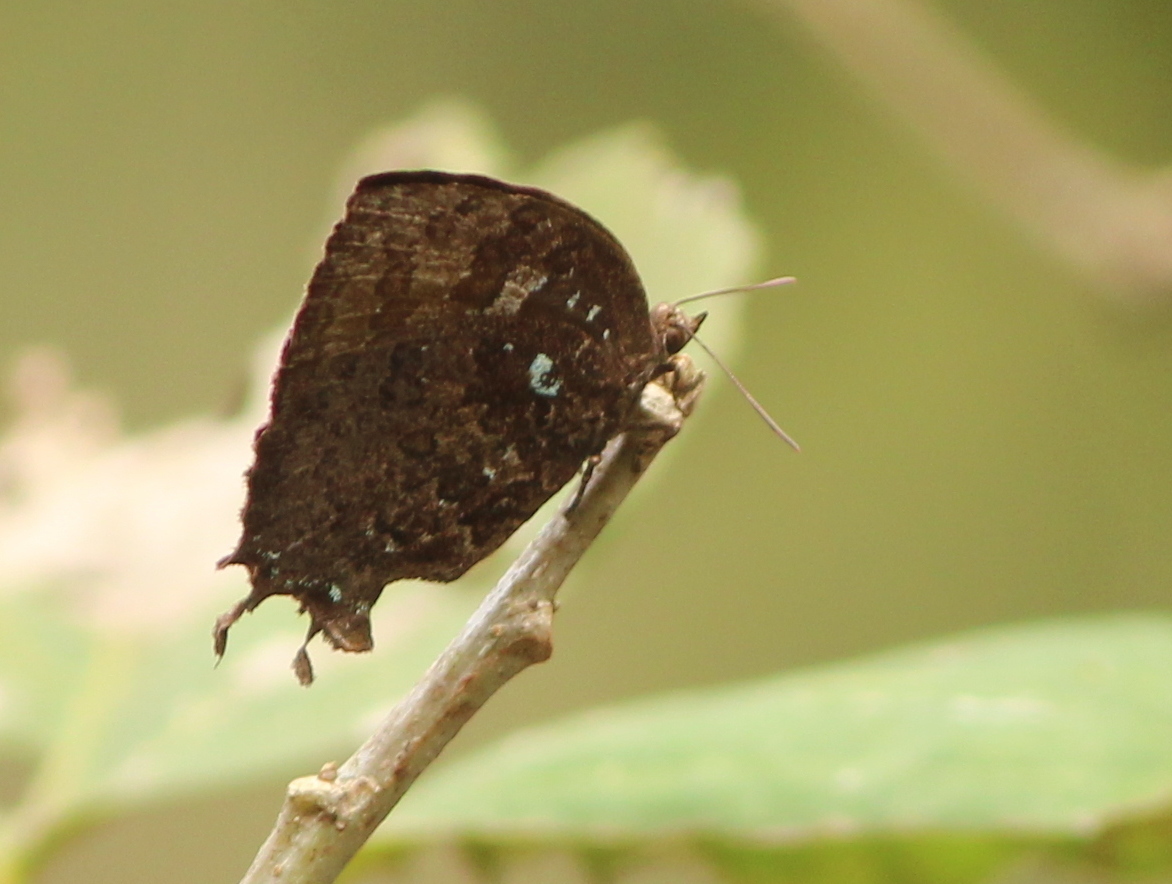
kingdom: Animalia
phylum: Arthropoda
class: Insecta
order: Lepidoptera
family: Lycaenidae
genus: Surendra
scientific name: Surendra quercetorum
